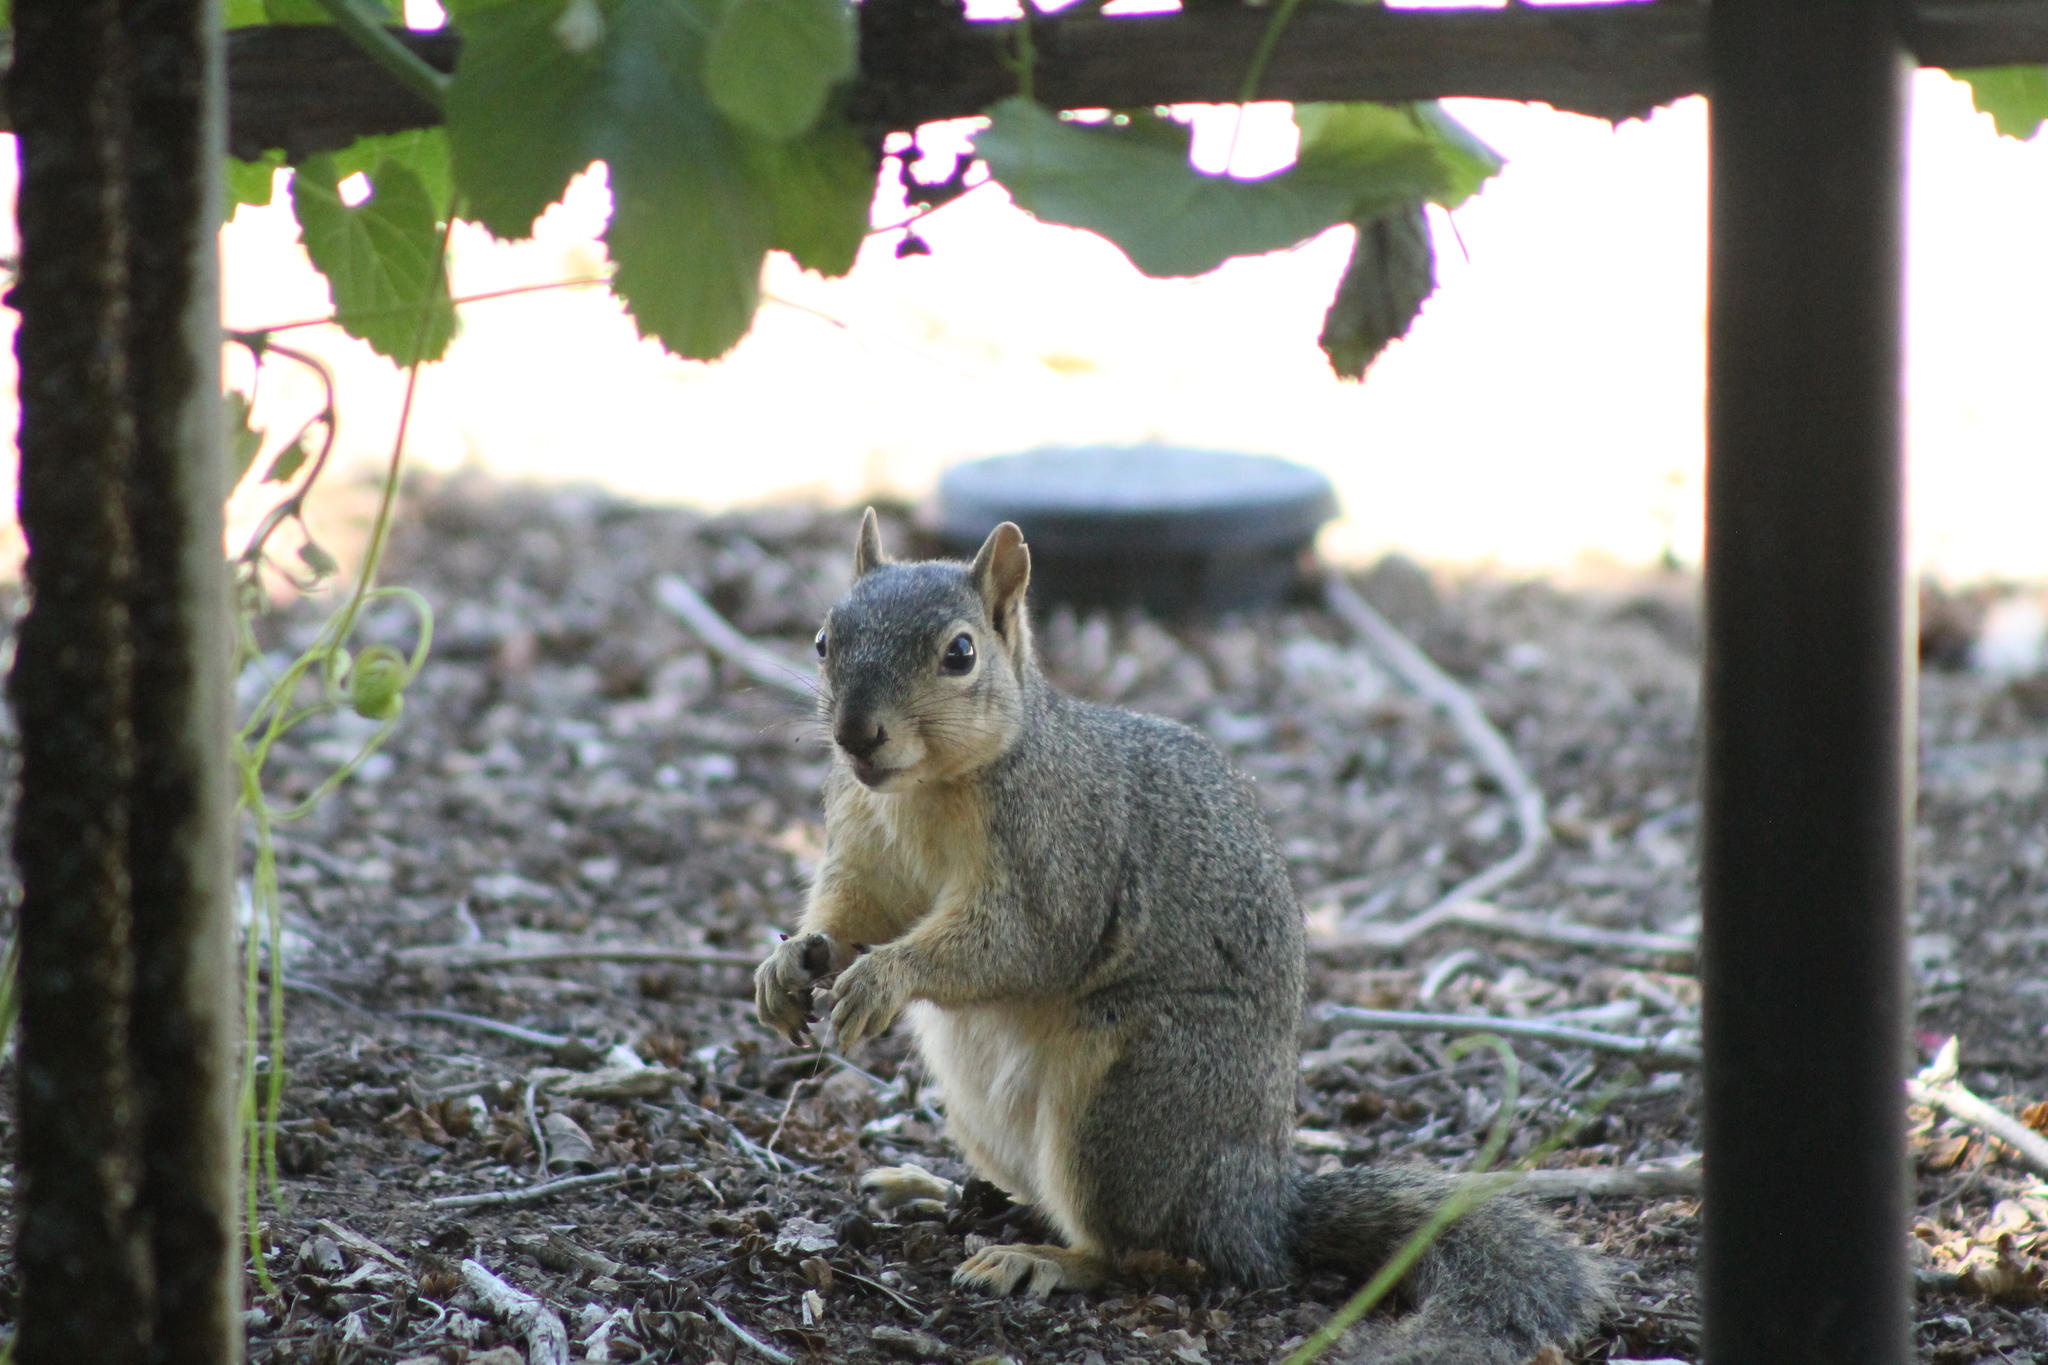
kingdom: Animalia
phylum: Chordata
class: Mammalia
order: Rodentia
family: Sciuridae
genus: Sciurus
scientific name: Sciurus niger
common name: Fox squirrel
